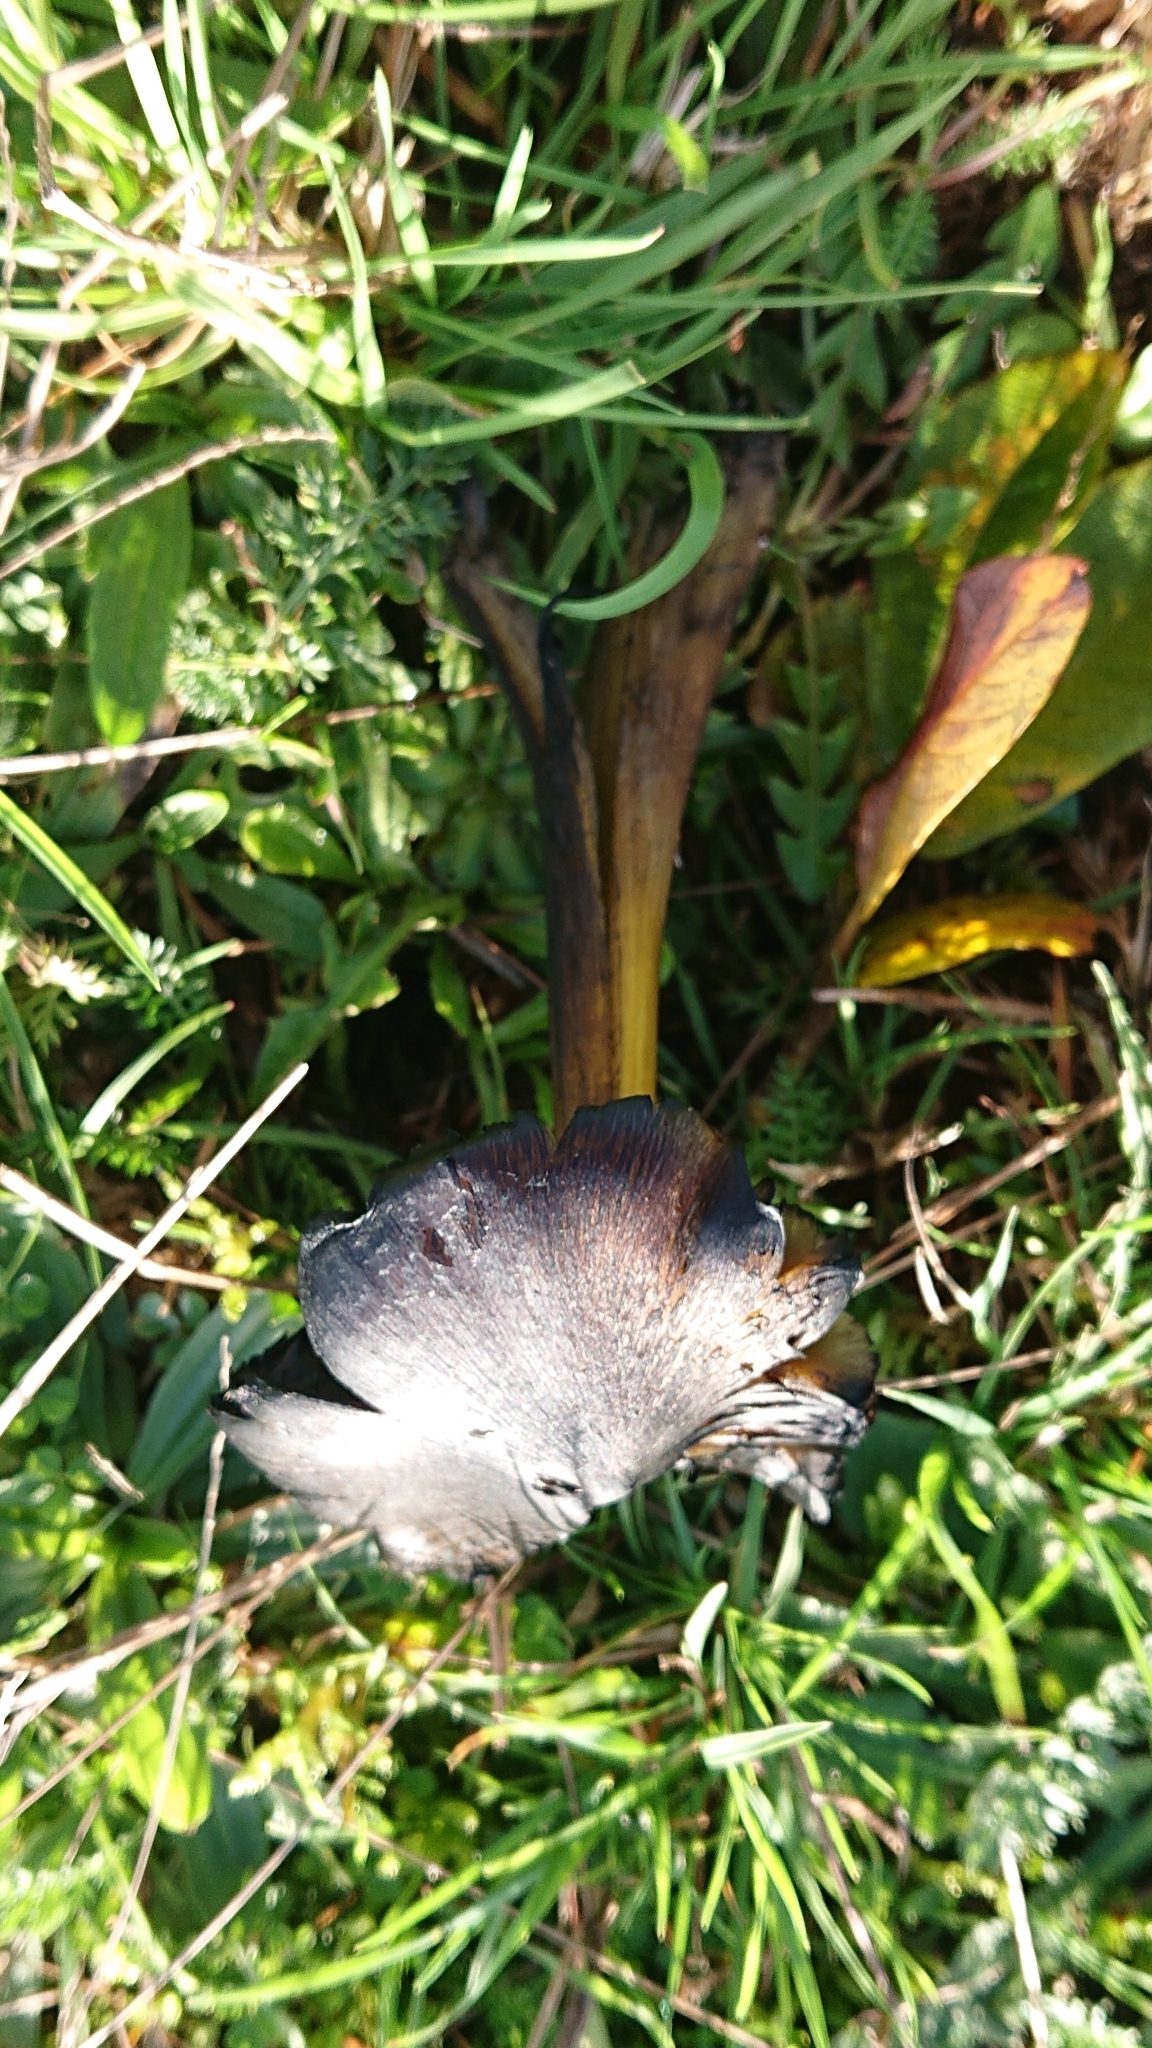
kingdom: Fungi
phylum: Basidiomycota
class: Agaricomycetes
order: Agaricales
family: Hygrophoraceae
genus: Hygrocybe
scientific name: Hygrocybe conica
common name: Blackening wax-cap
